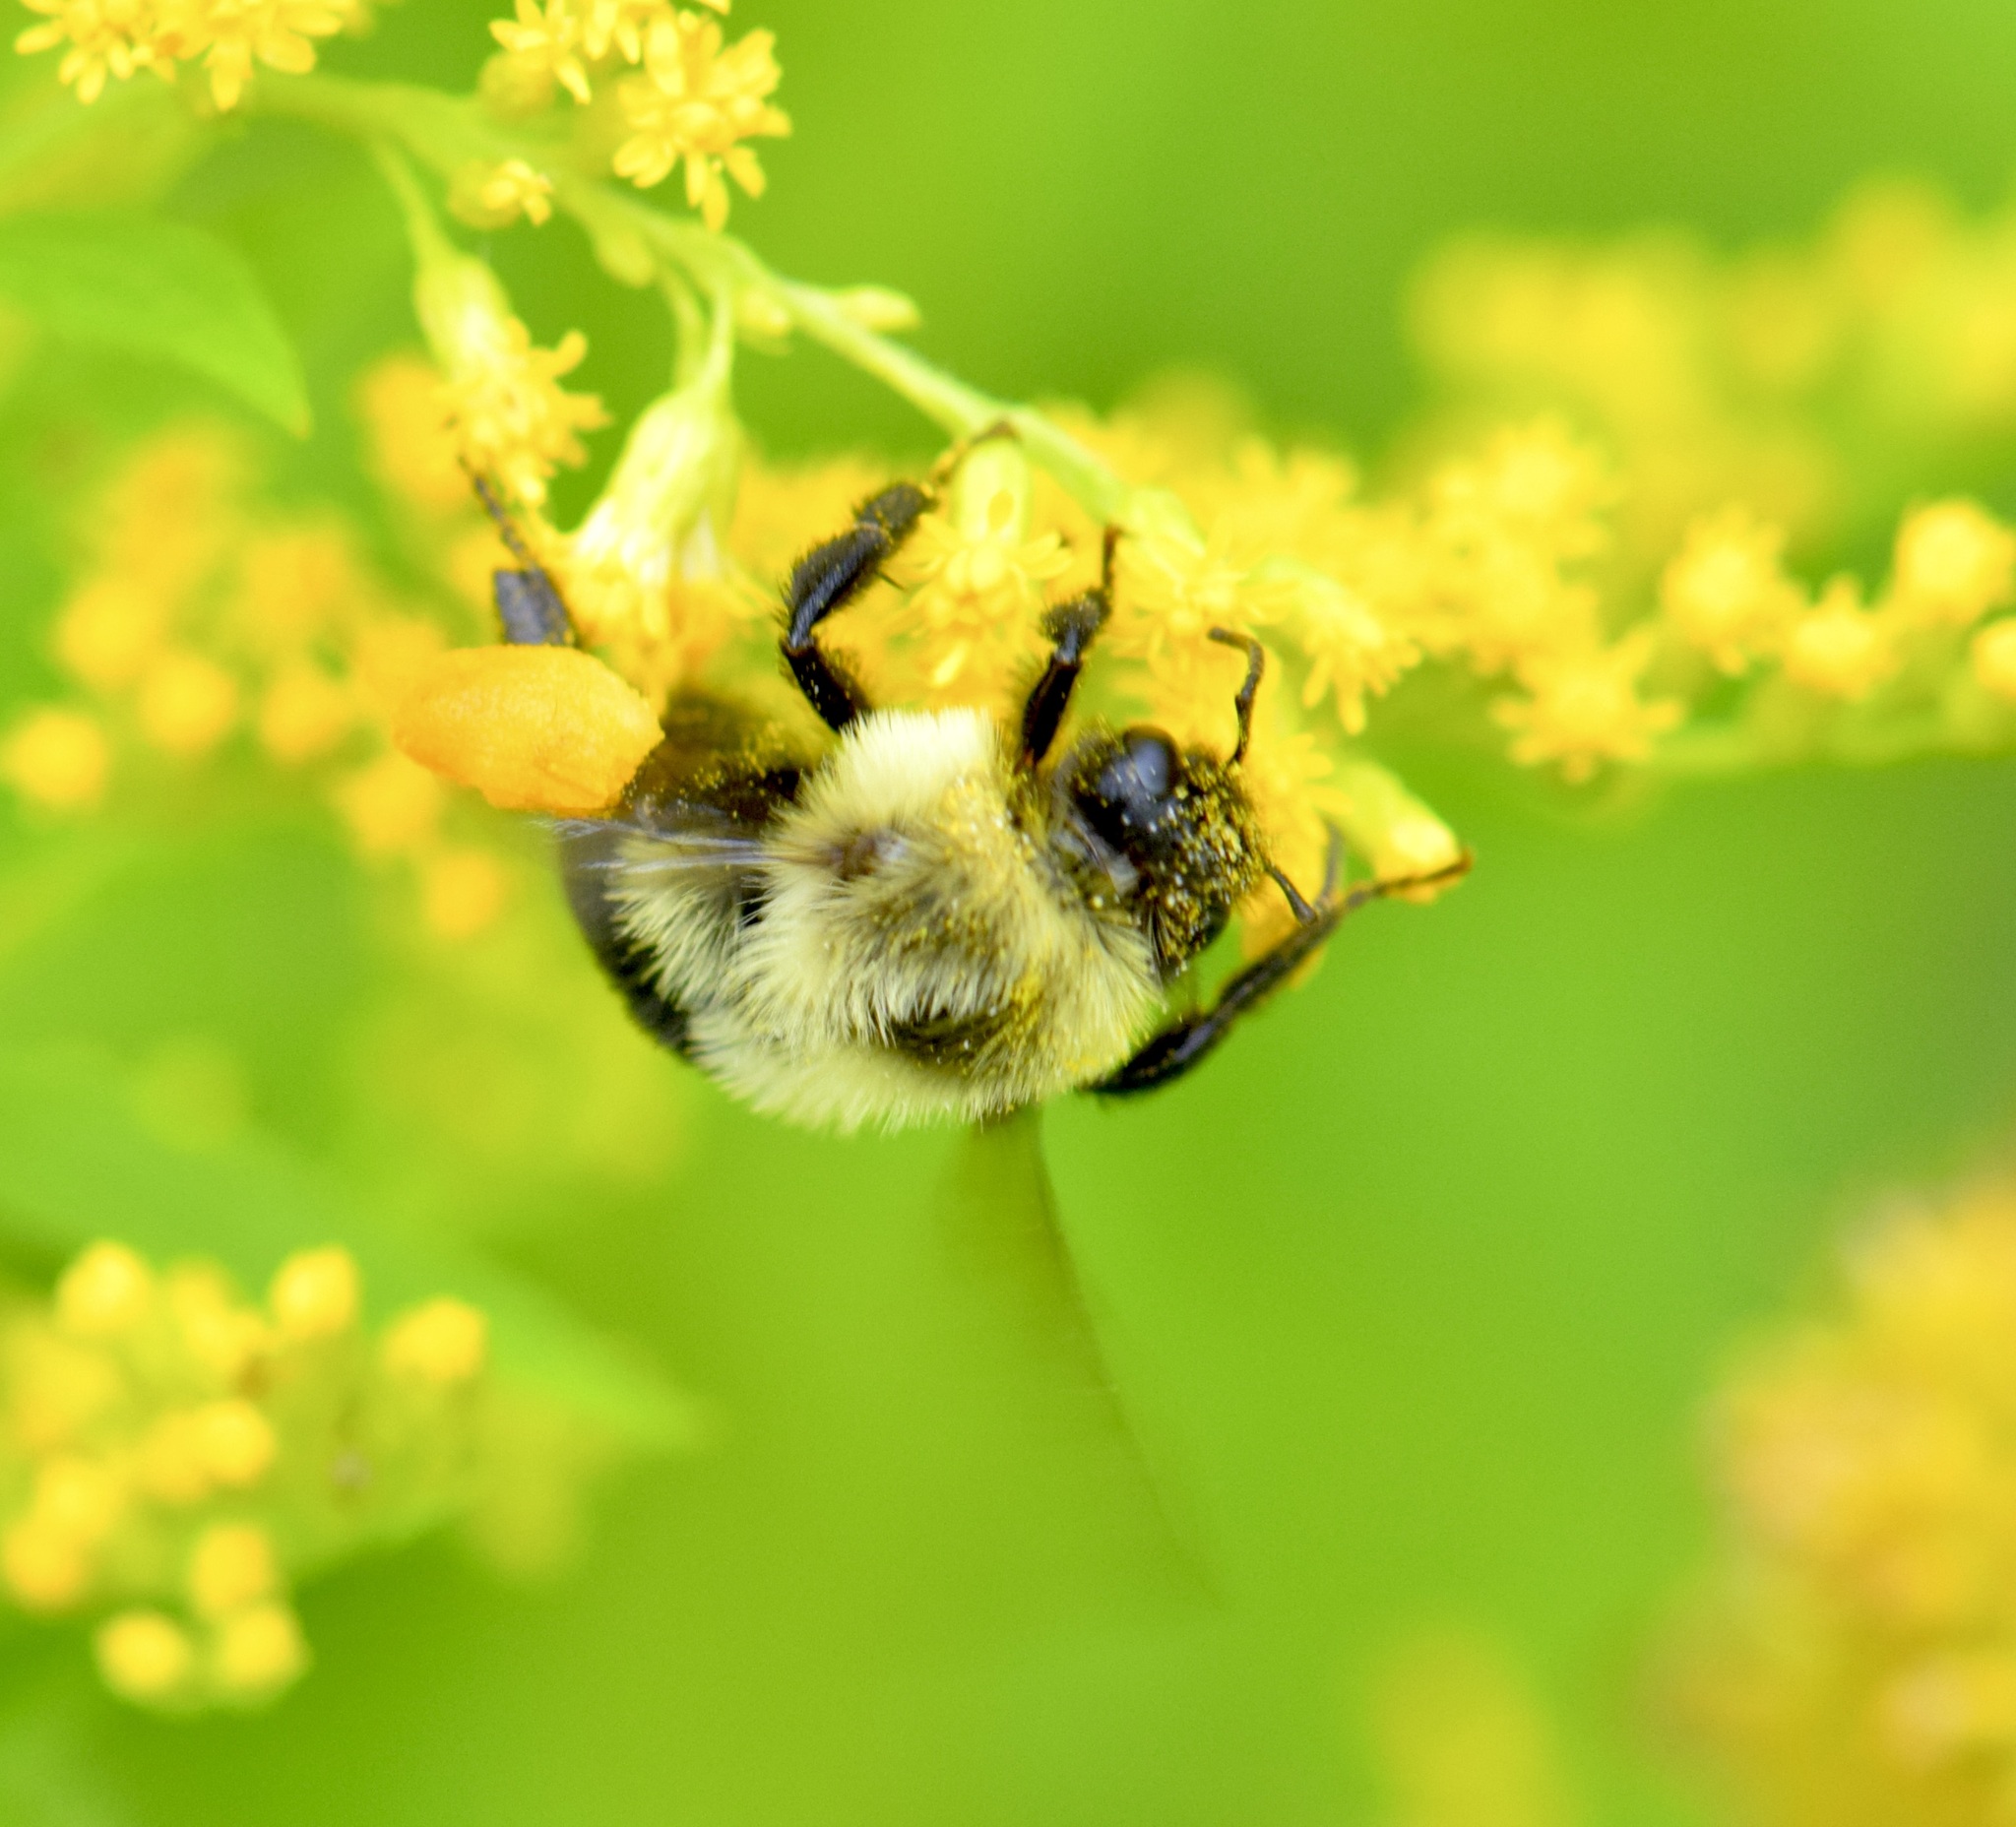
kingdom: Animalia
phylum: Arthropoda
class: Insecta
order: Hymenoptera
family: Apidae
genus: Bombus
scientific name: Bombus impatiens
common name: Common eastern bumble bee
